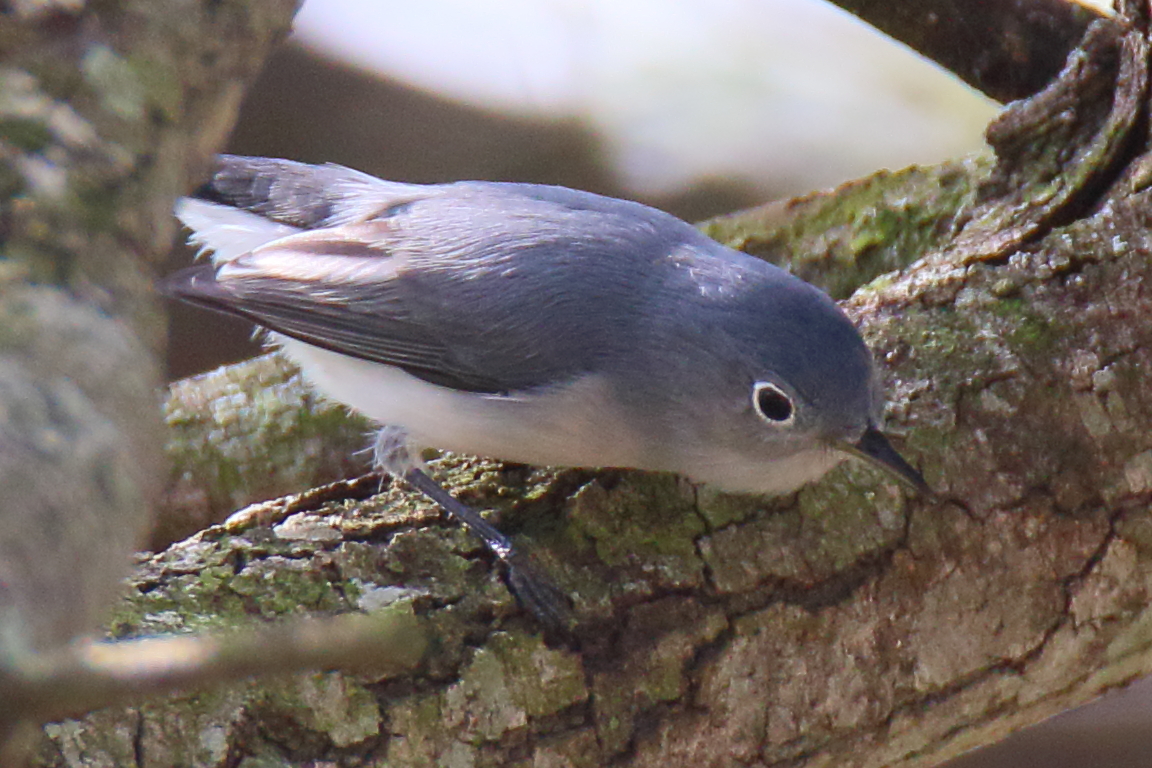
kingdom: Animalia
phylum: Chordata
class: Aves
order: Passeriformes
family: Polioptilidae
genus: Polioptila
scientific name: Polioptila caerulea
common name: Blue-gray gnatcatcher
